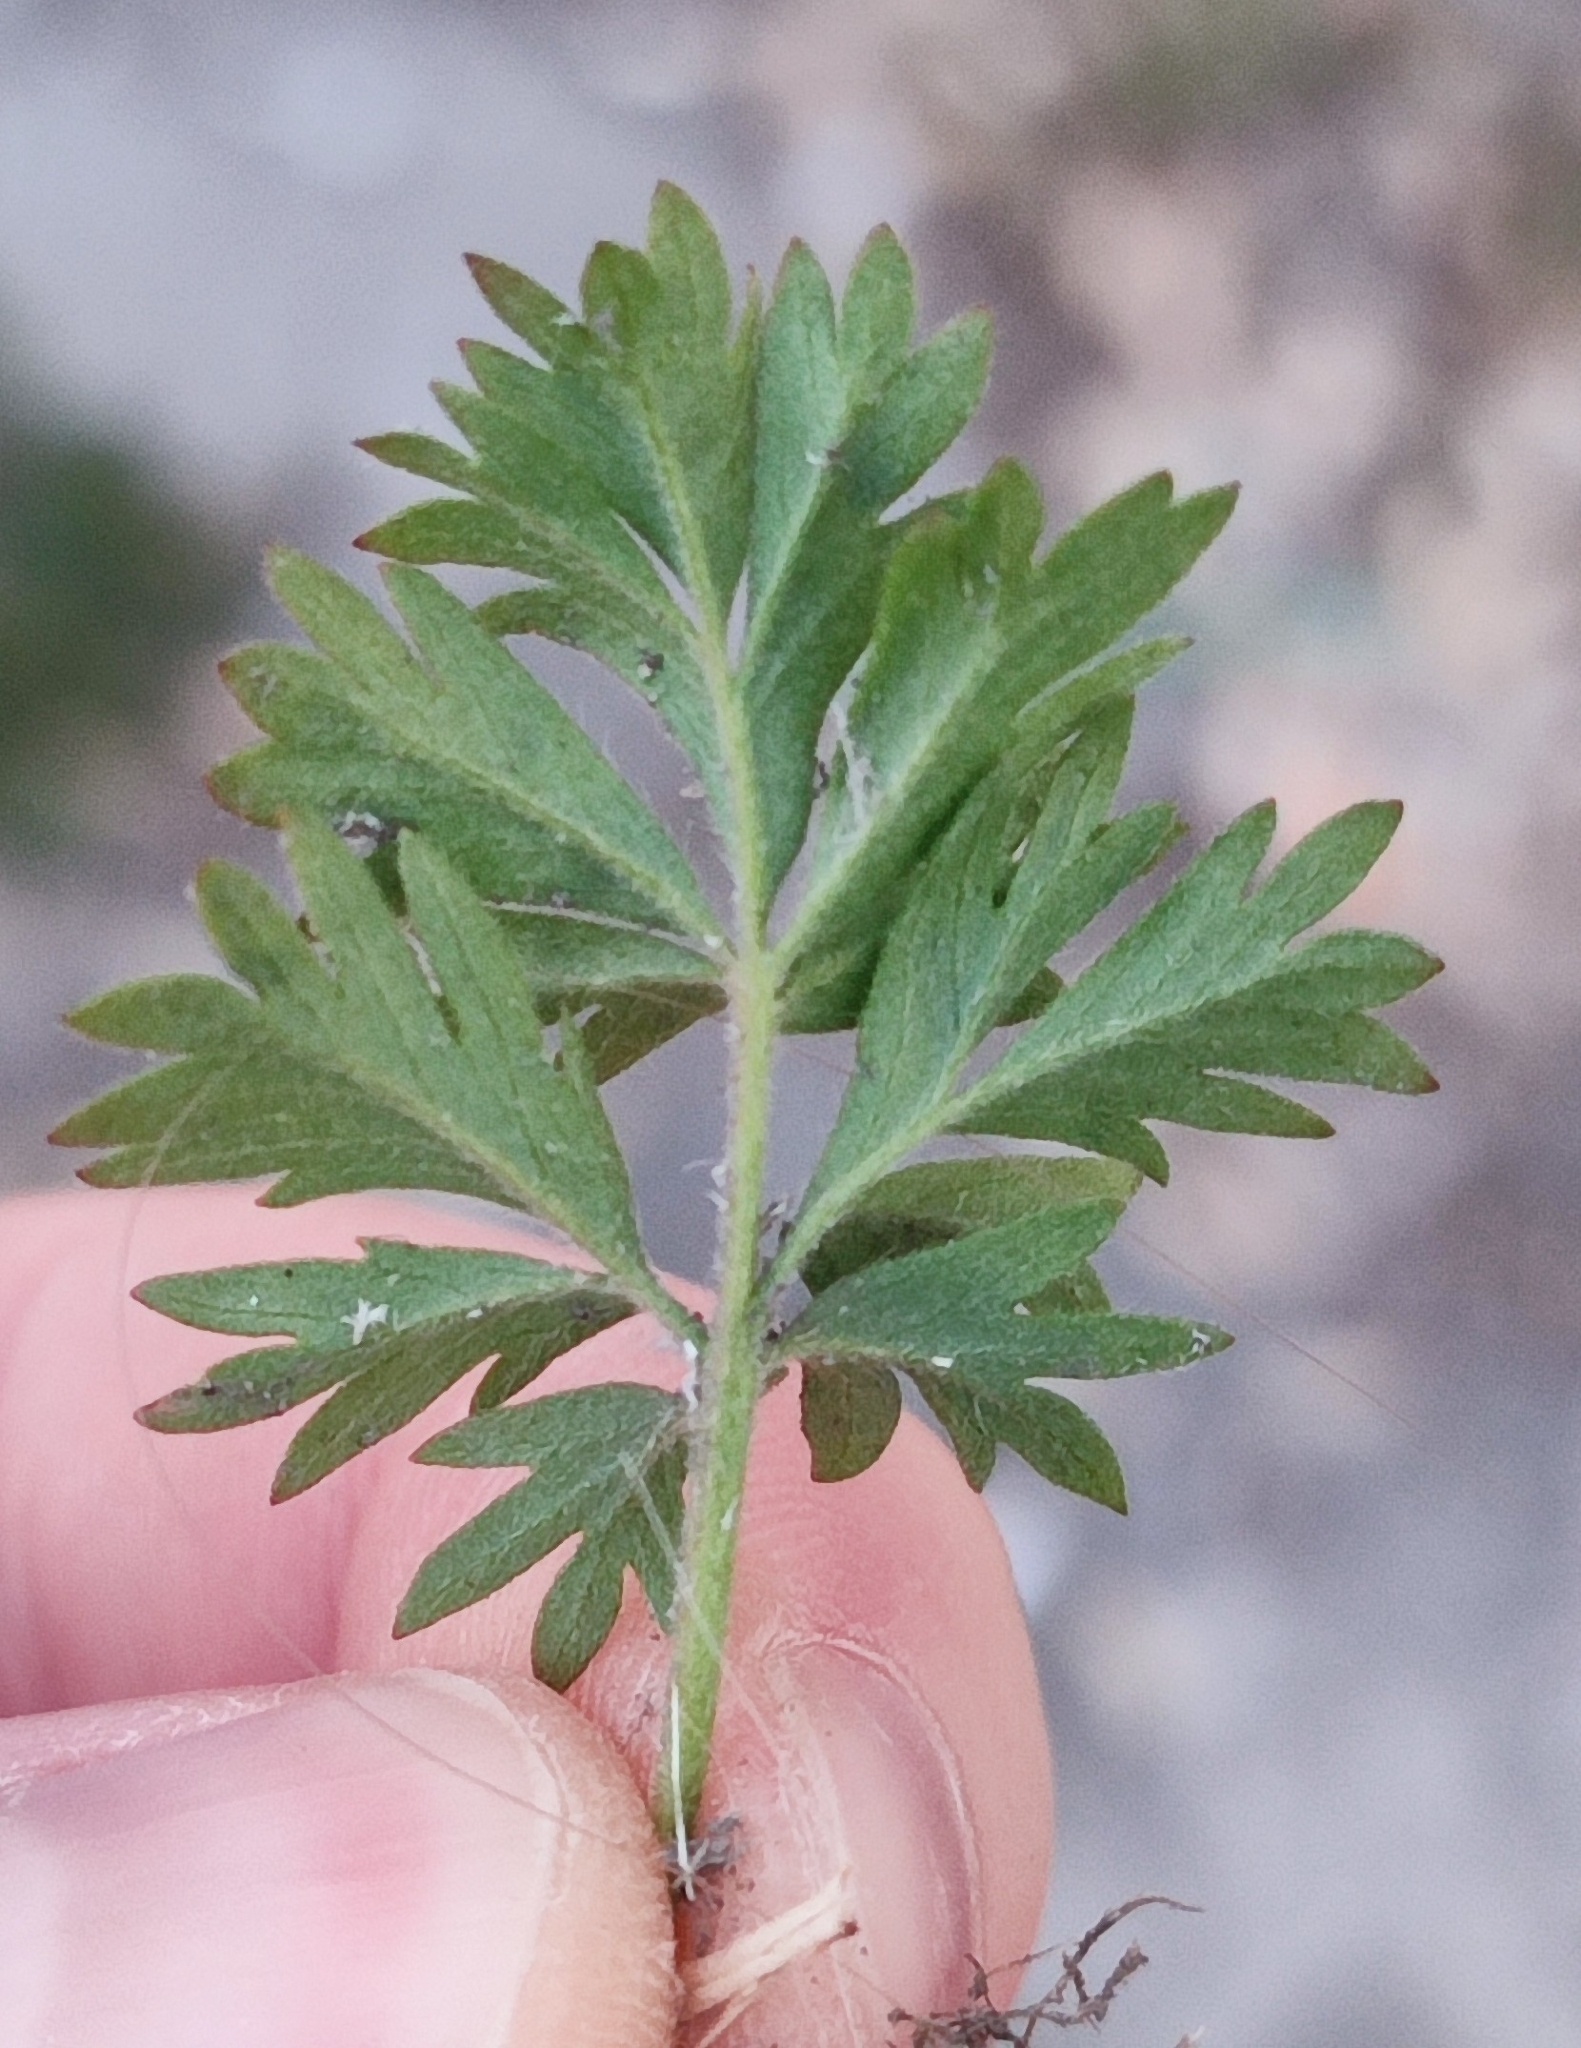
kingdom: Plantae
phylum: Tracheophyta
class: Magnoliopsida
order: Rosales
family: Rosaceae
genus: Potentilla
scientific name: Potentilla tobolensis
